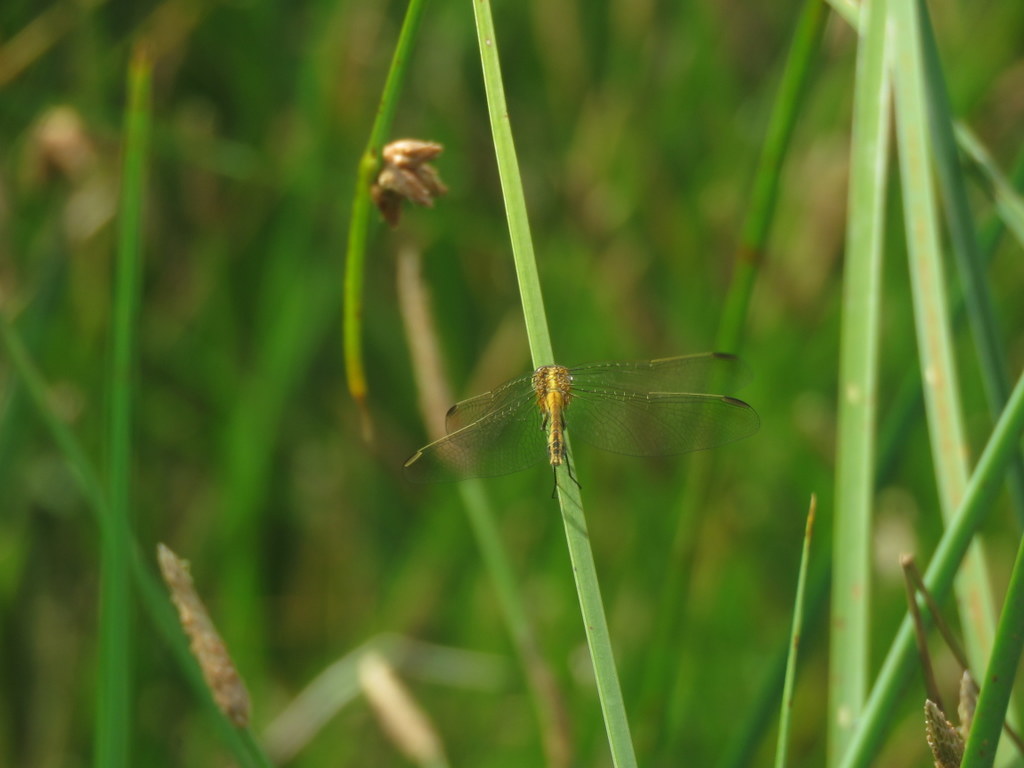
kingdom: Animalia
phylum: Arthropoda
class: Insecta
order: Odonata
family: Libellulidae
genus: Erythrodiplax
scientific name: Erythrodiplax nigricans
